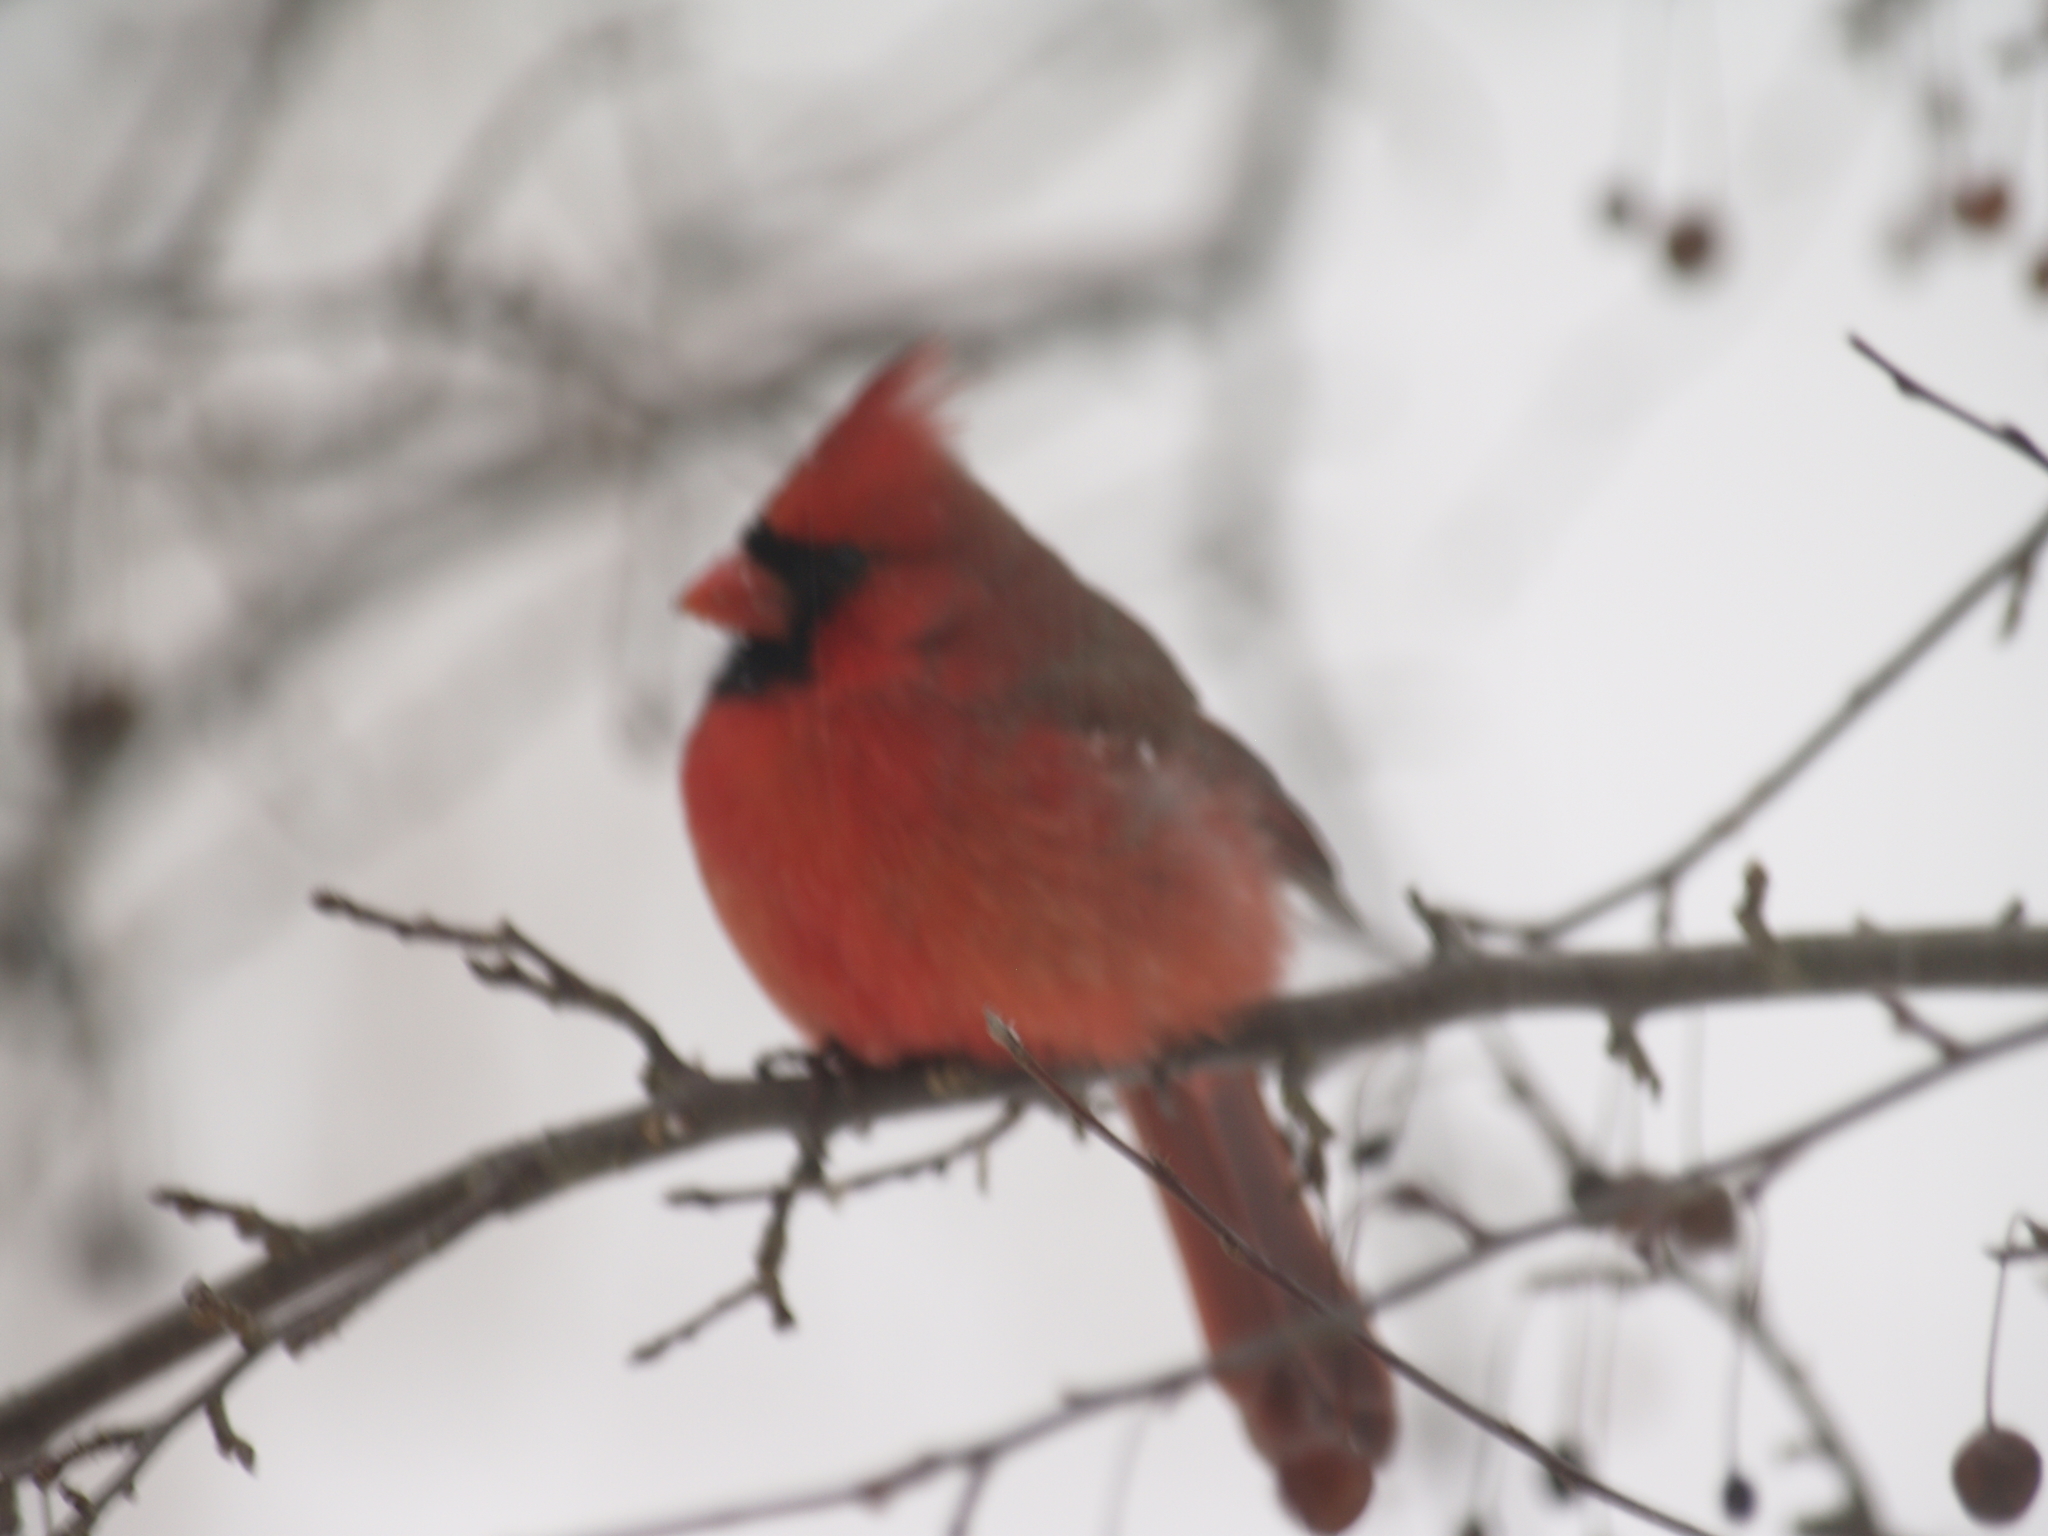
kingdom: Animalia
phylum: Chordata
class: Aves
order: Passeriformes
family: Cardinalidae
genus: Cardinalis
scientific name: Cardinalis cardinalis
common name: Northern cardinal
